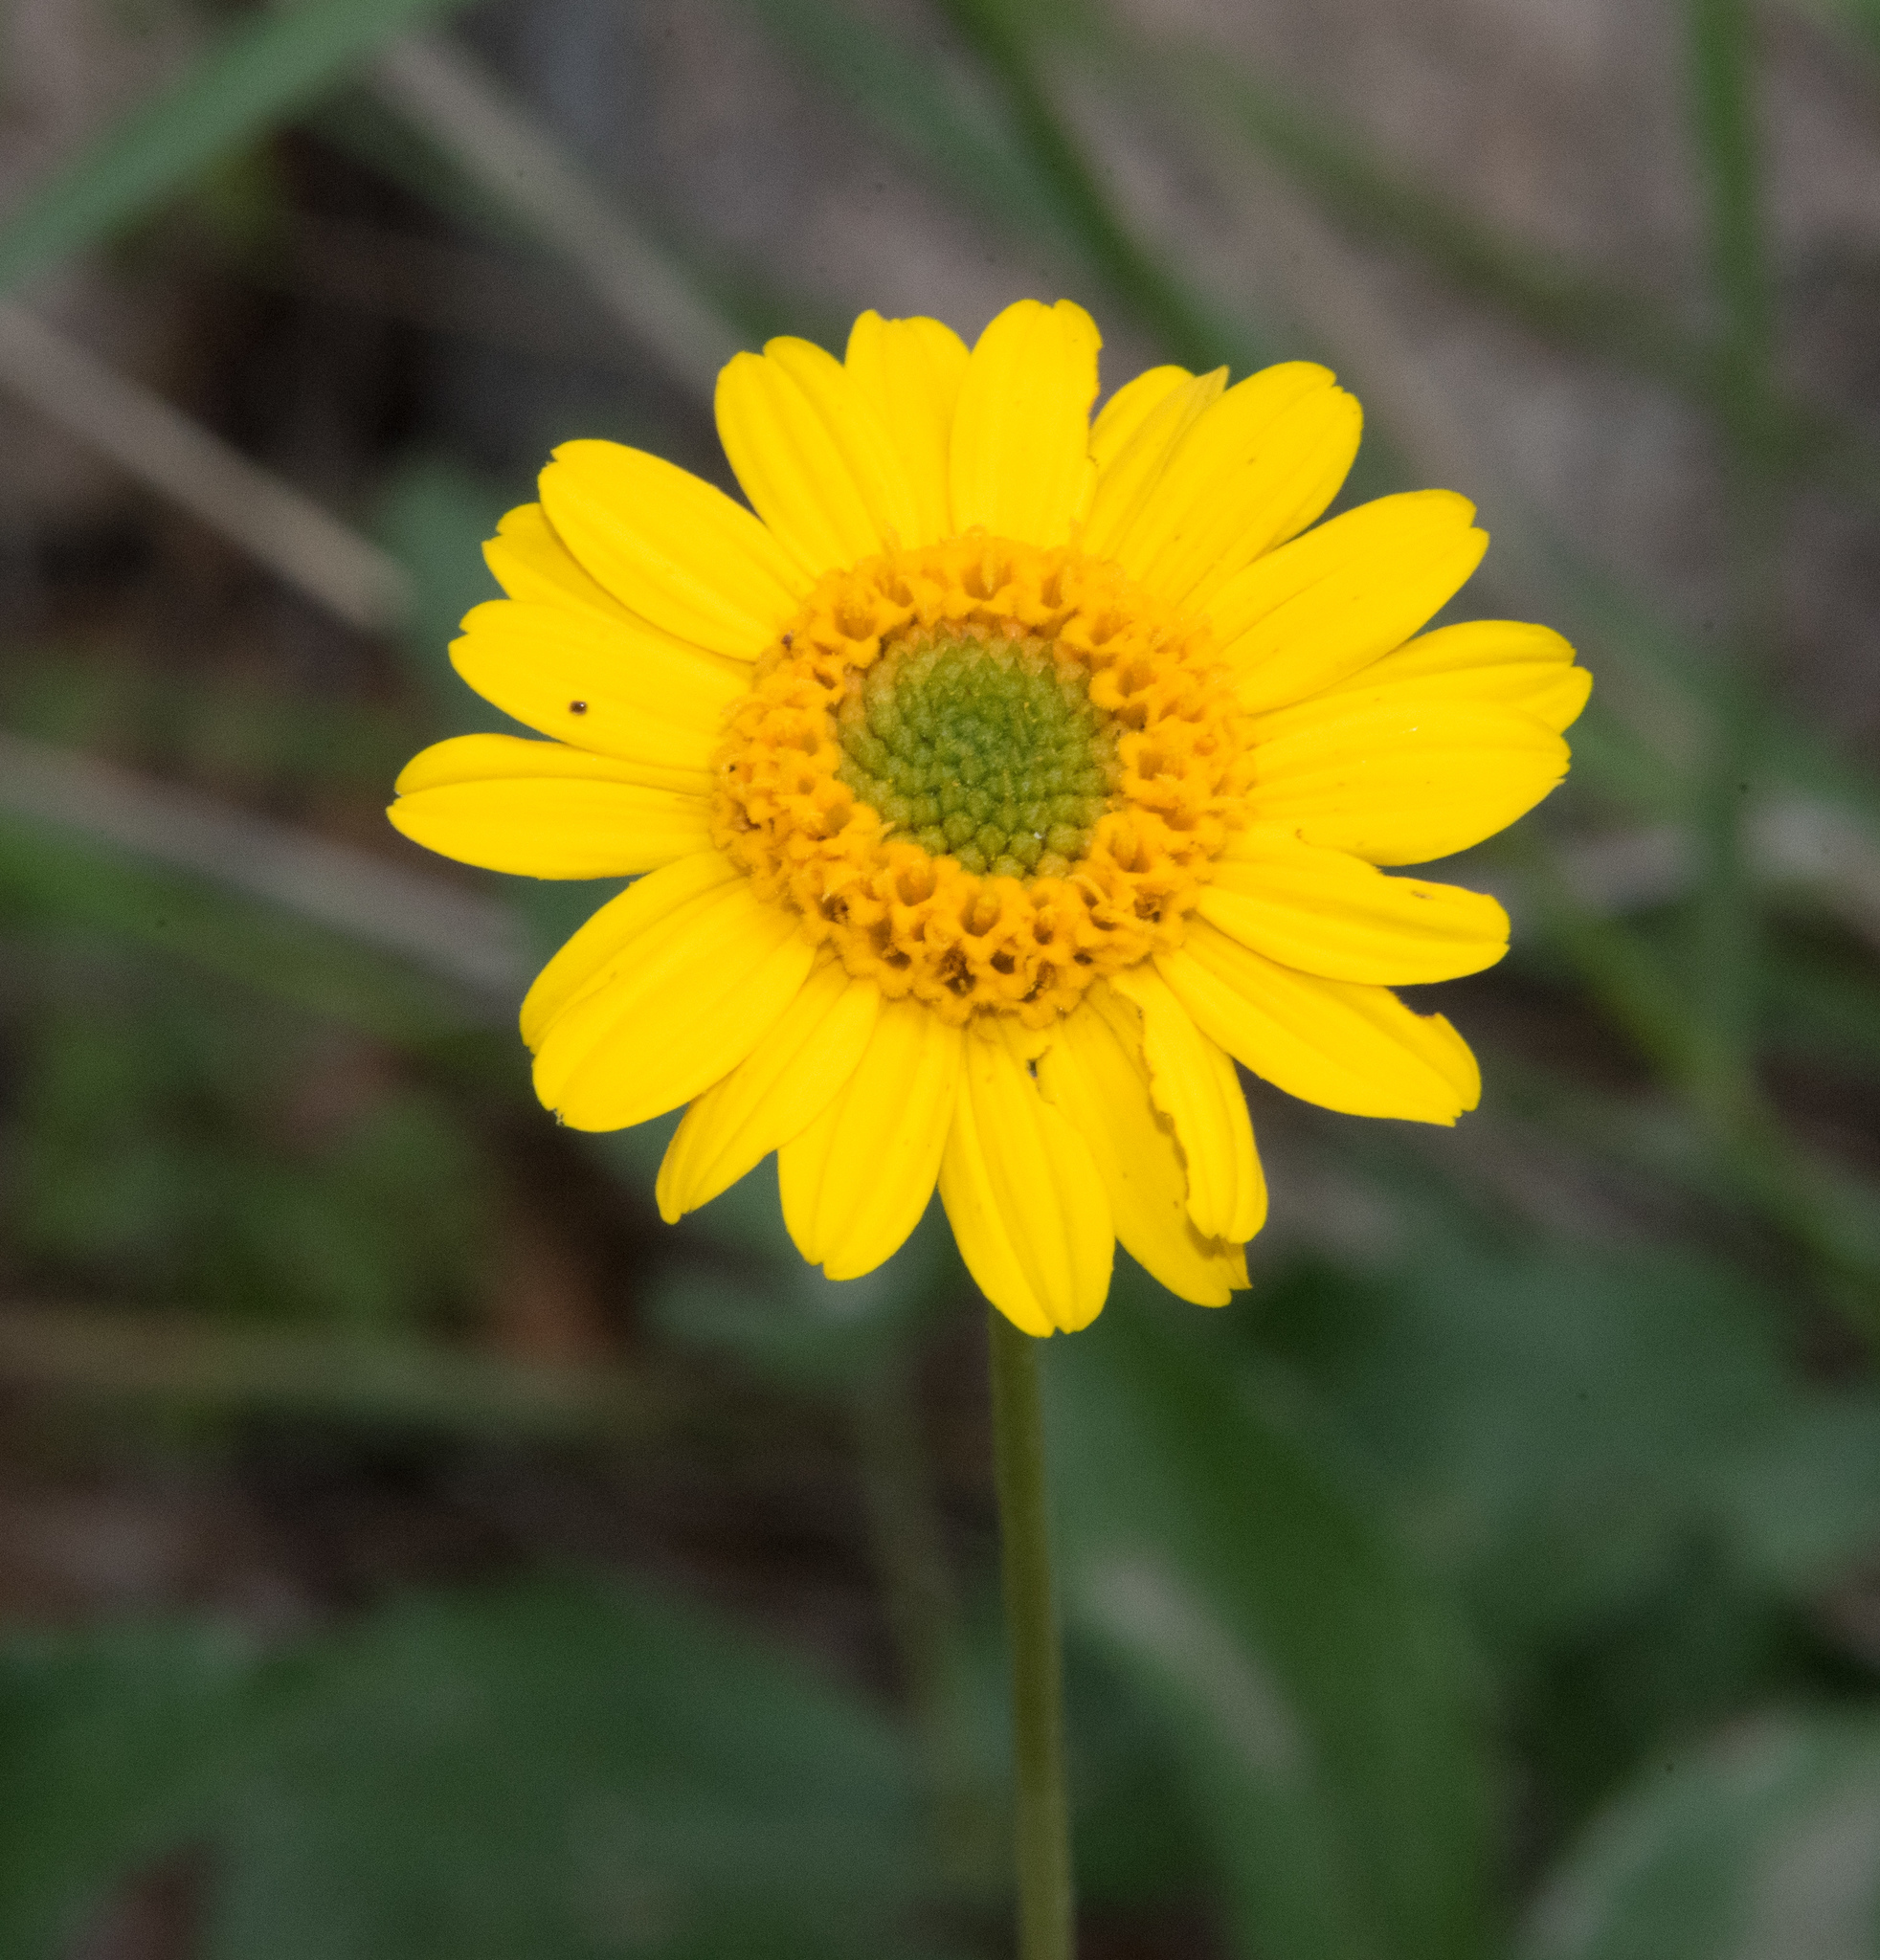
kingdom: Plantae
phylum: Tracheophyta
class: Magnoliopsida
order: Asterales
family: Asteraceae
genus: Lasianthaea
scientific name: Lasianthaea podocephala
